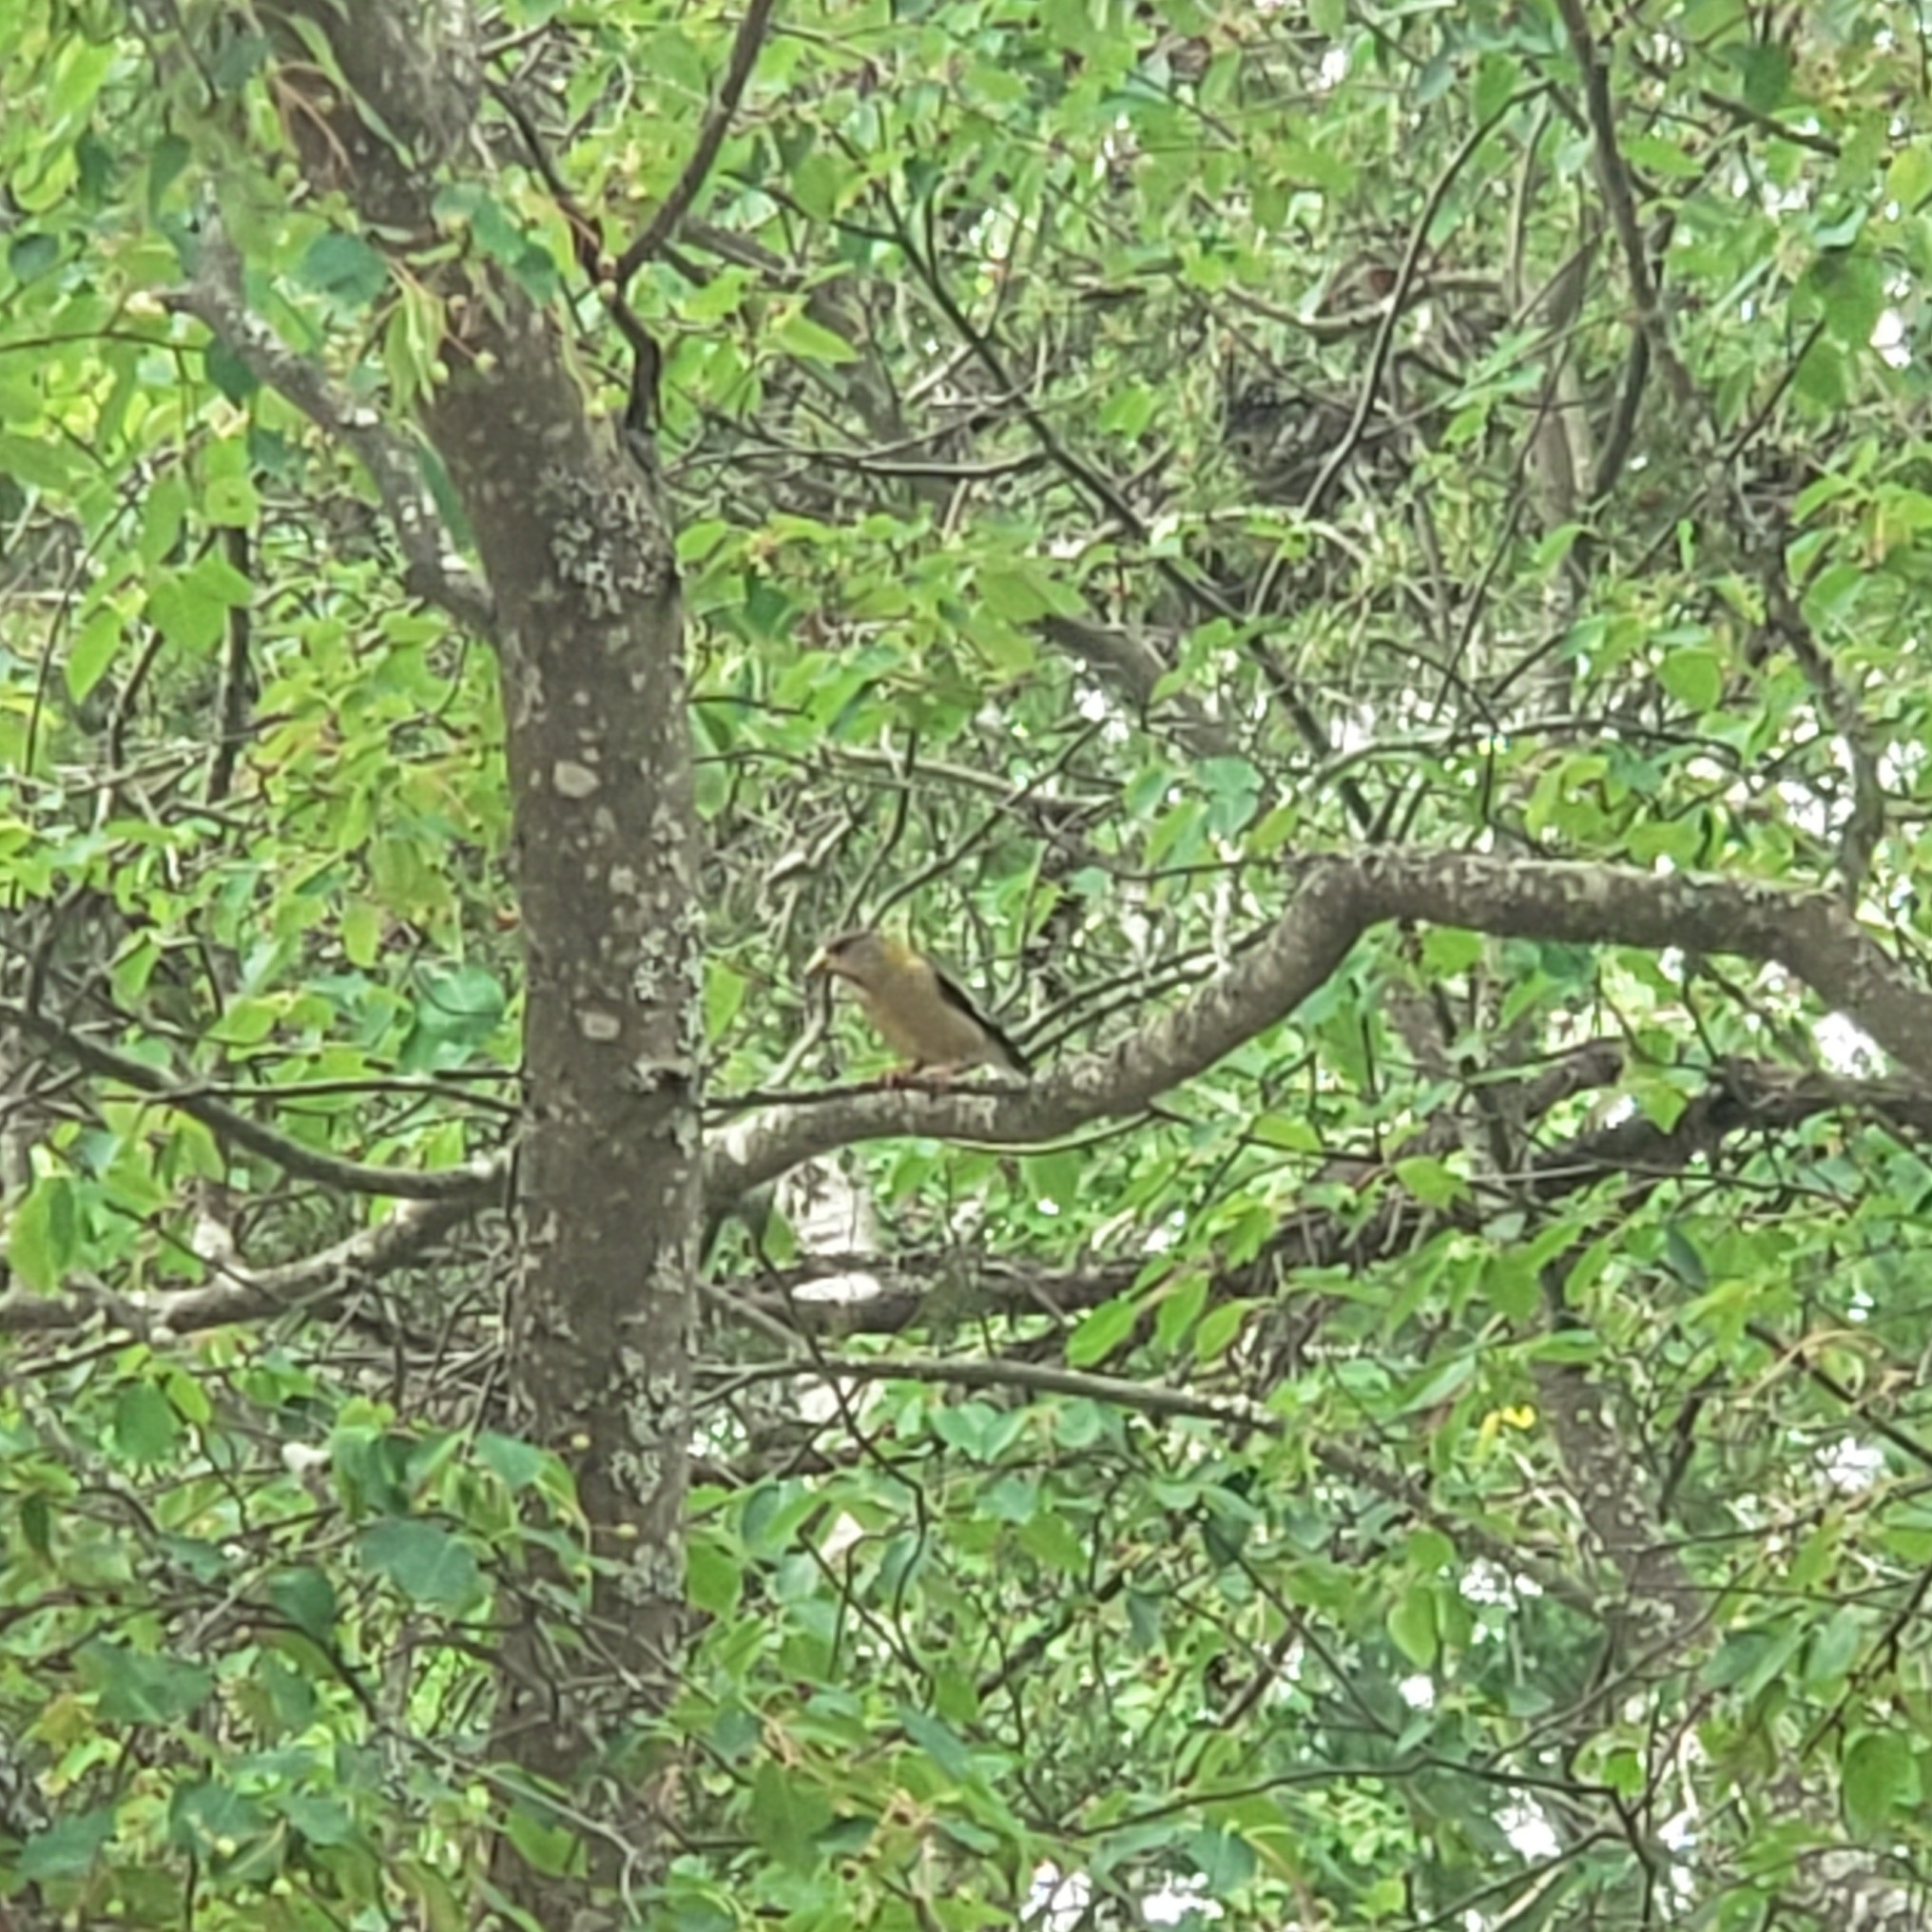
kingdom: Animalia
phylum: Chordata
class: Aves
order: Passeriformes
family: Fringillidae
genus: Hesperiphona
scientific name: Hesperiphona vespertina
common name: Evening grosbeak
